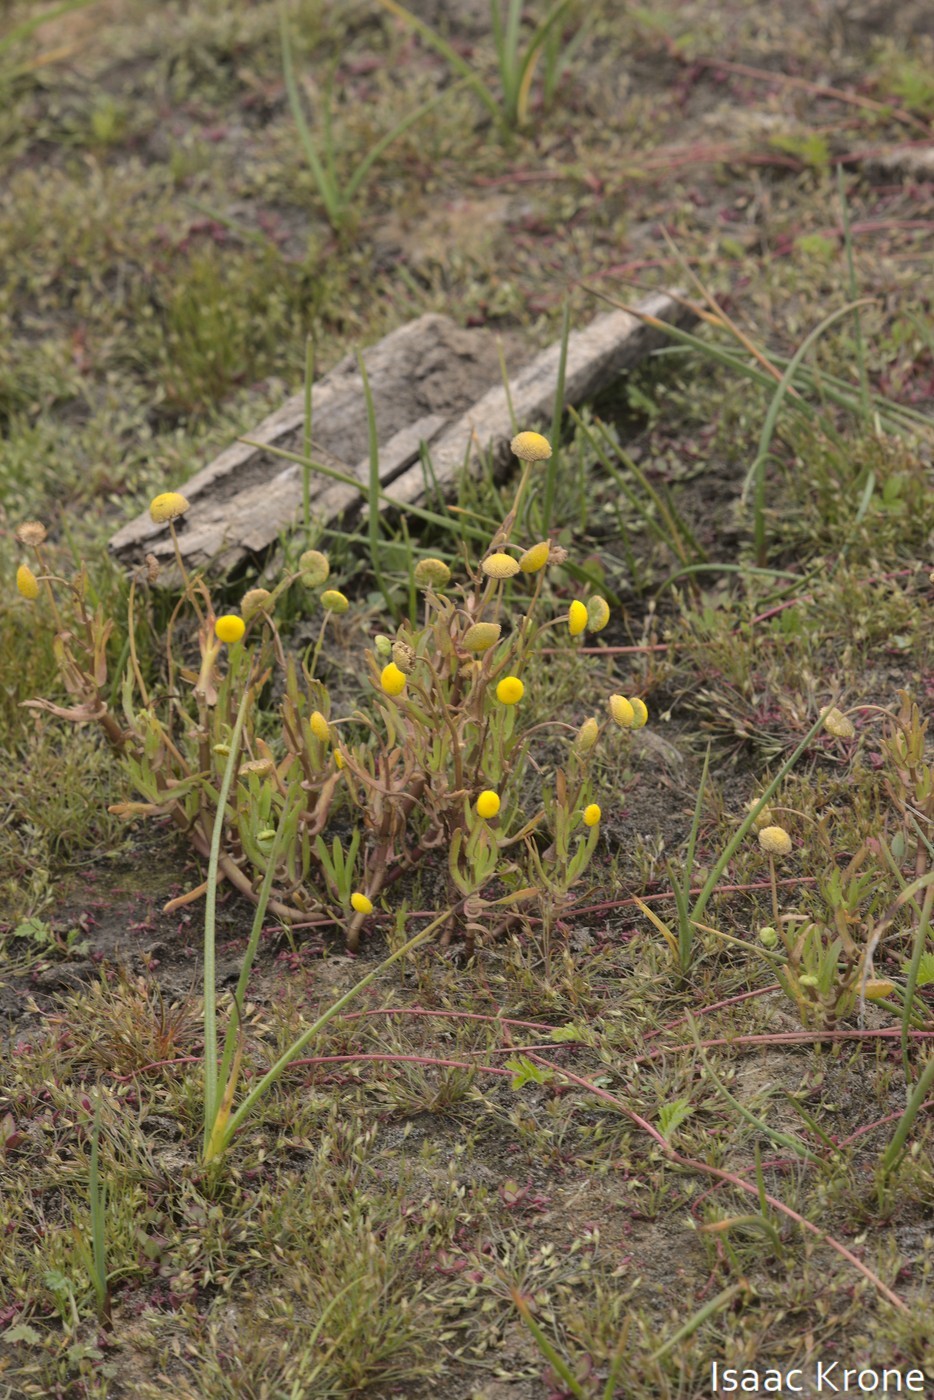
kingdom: Plantae
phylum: Tracheophyta
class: Magnoliopsida
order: Asterales
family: Asteraceae
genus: Cotula
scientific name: Cotula coronopifolia
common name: Buttonweed
